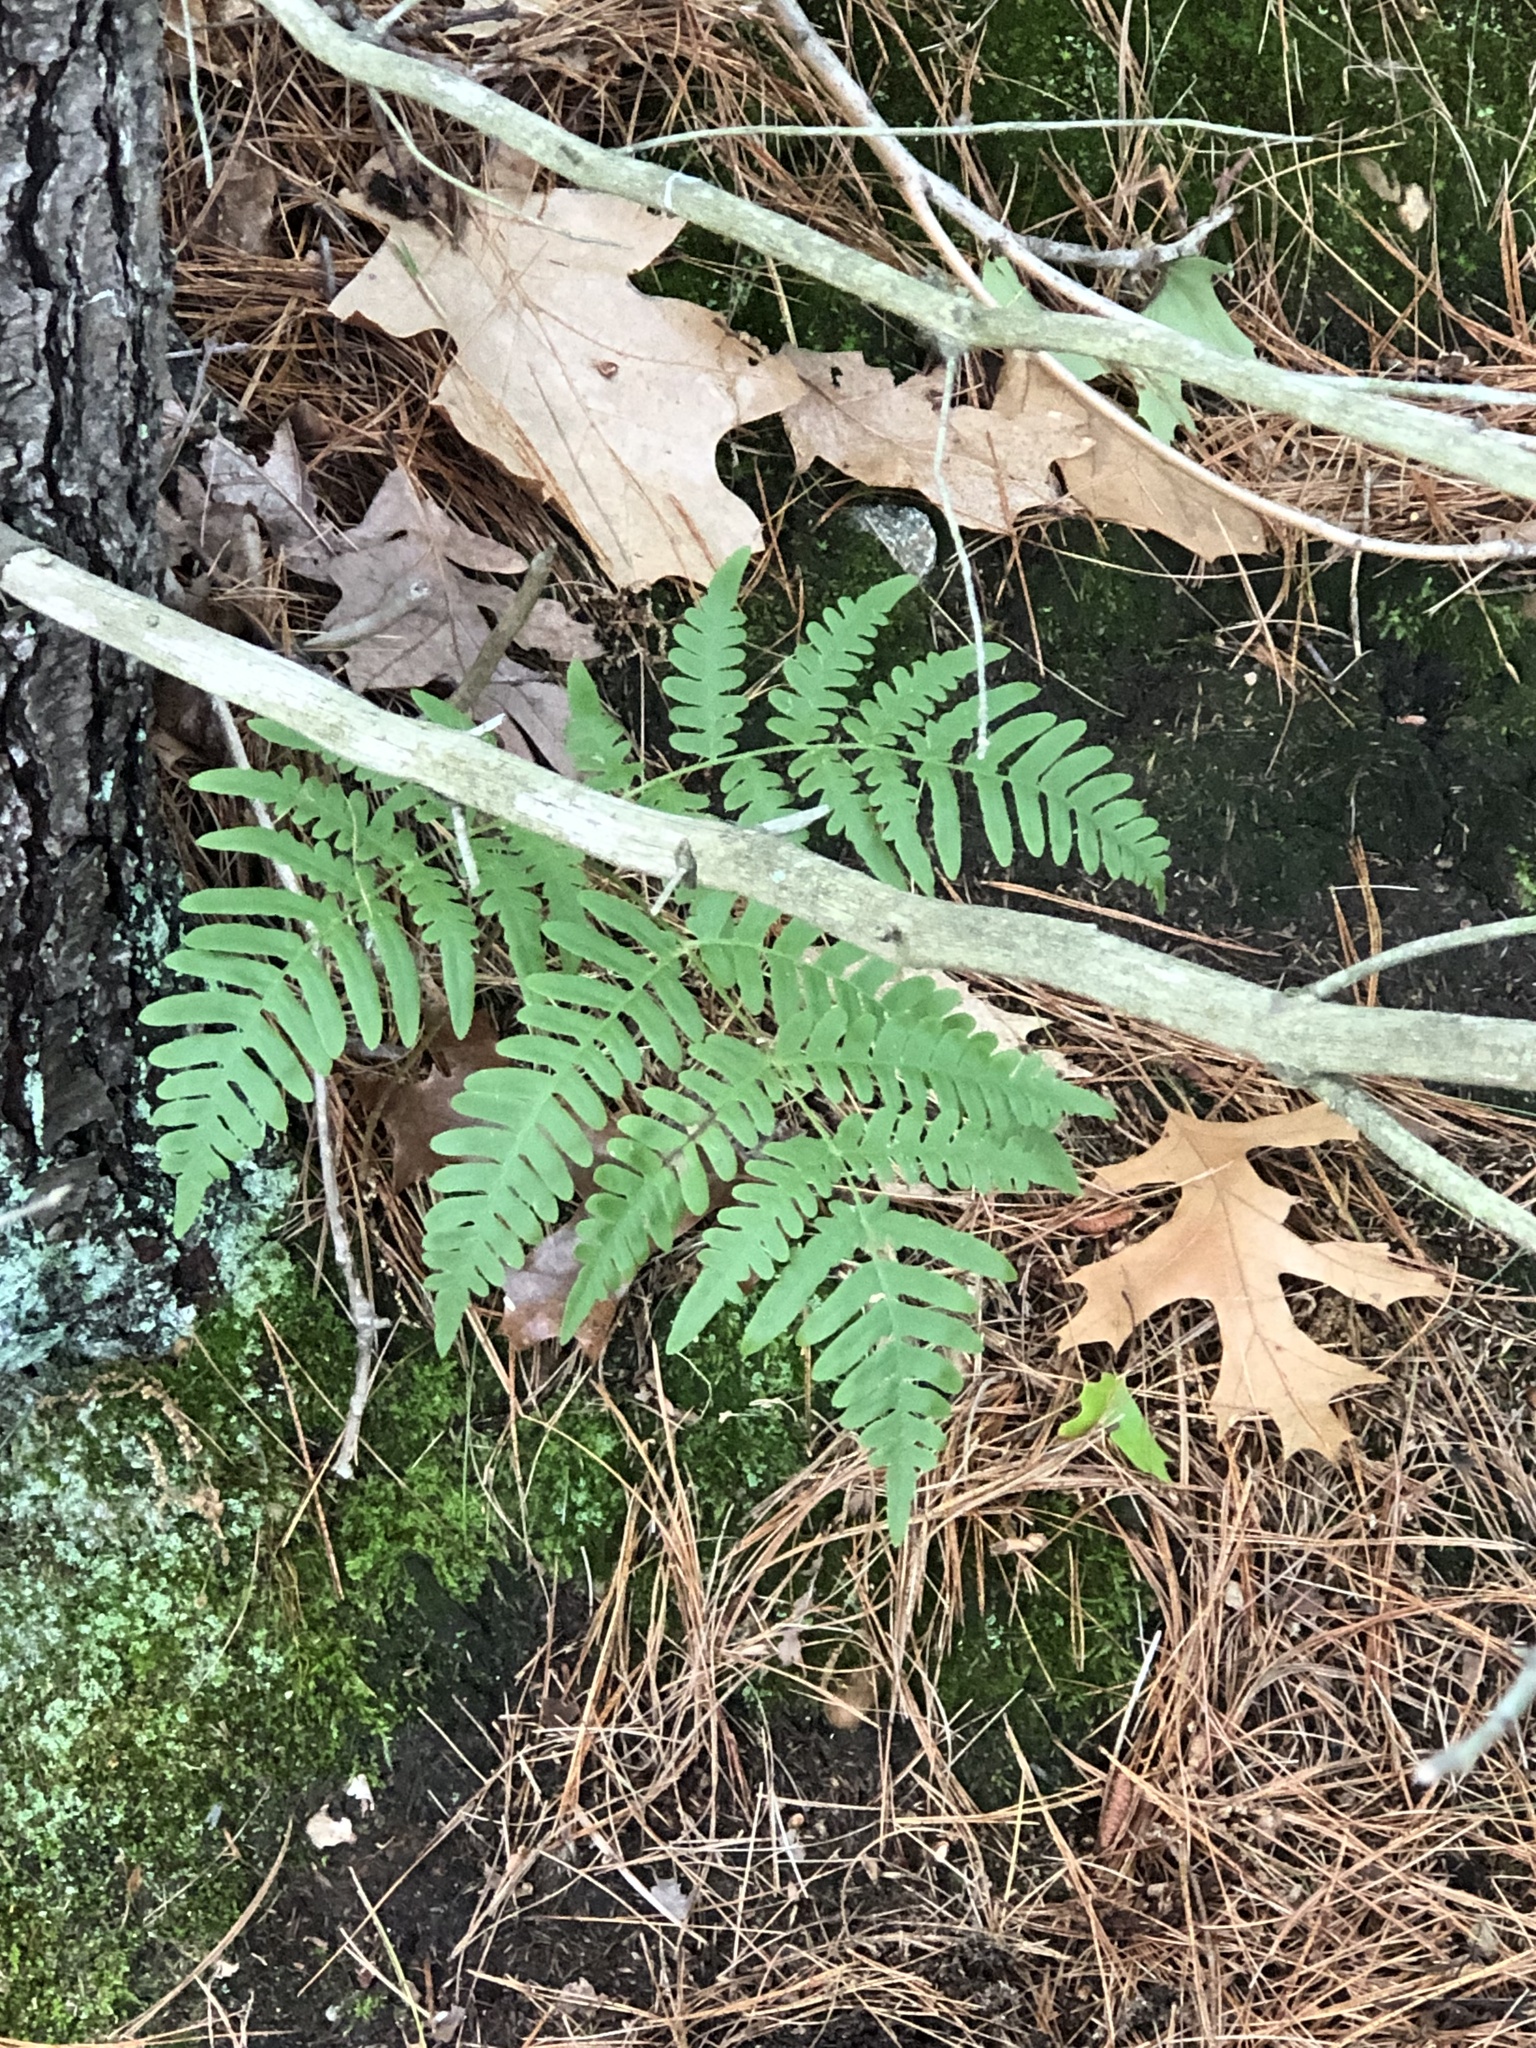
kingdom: Plantae
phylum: Tracheophyta
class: Polypodiopsida
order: Polypodiales
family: Dennstaedtiaceae
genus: Pteridium
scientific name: Pteridium aquilinum
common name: Bracken
